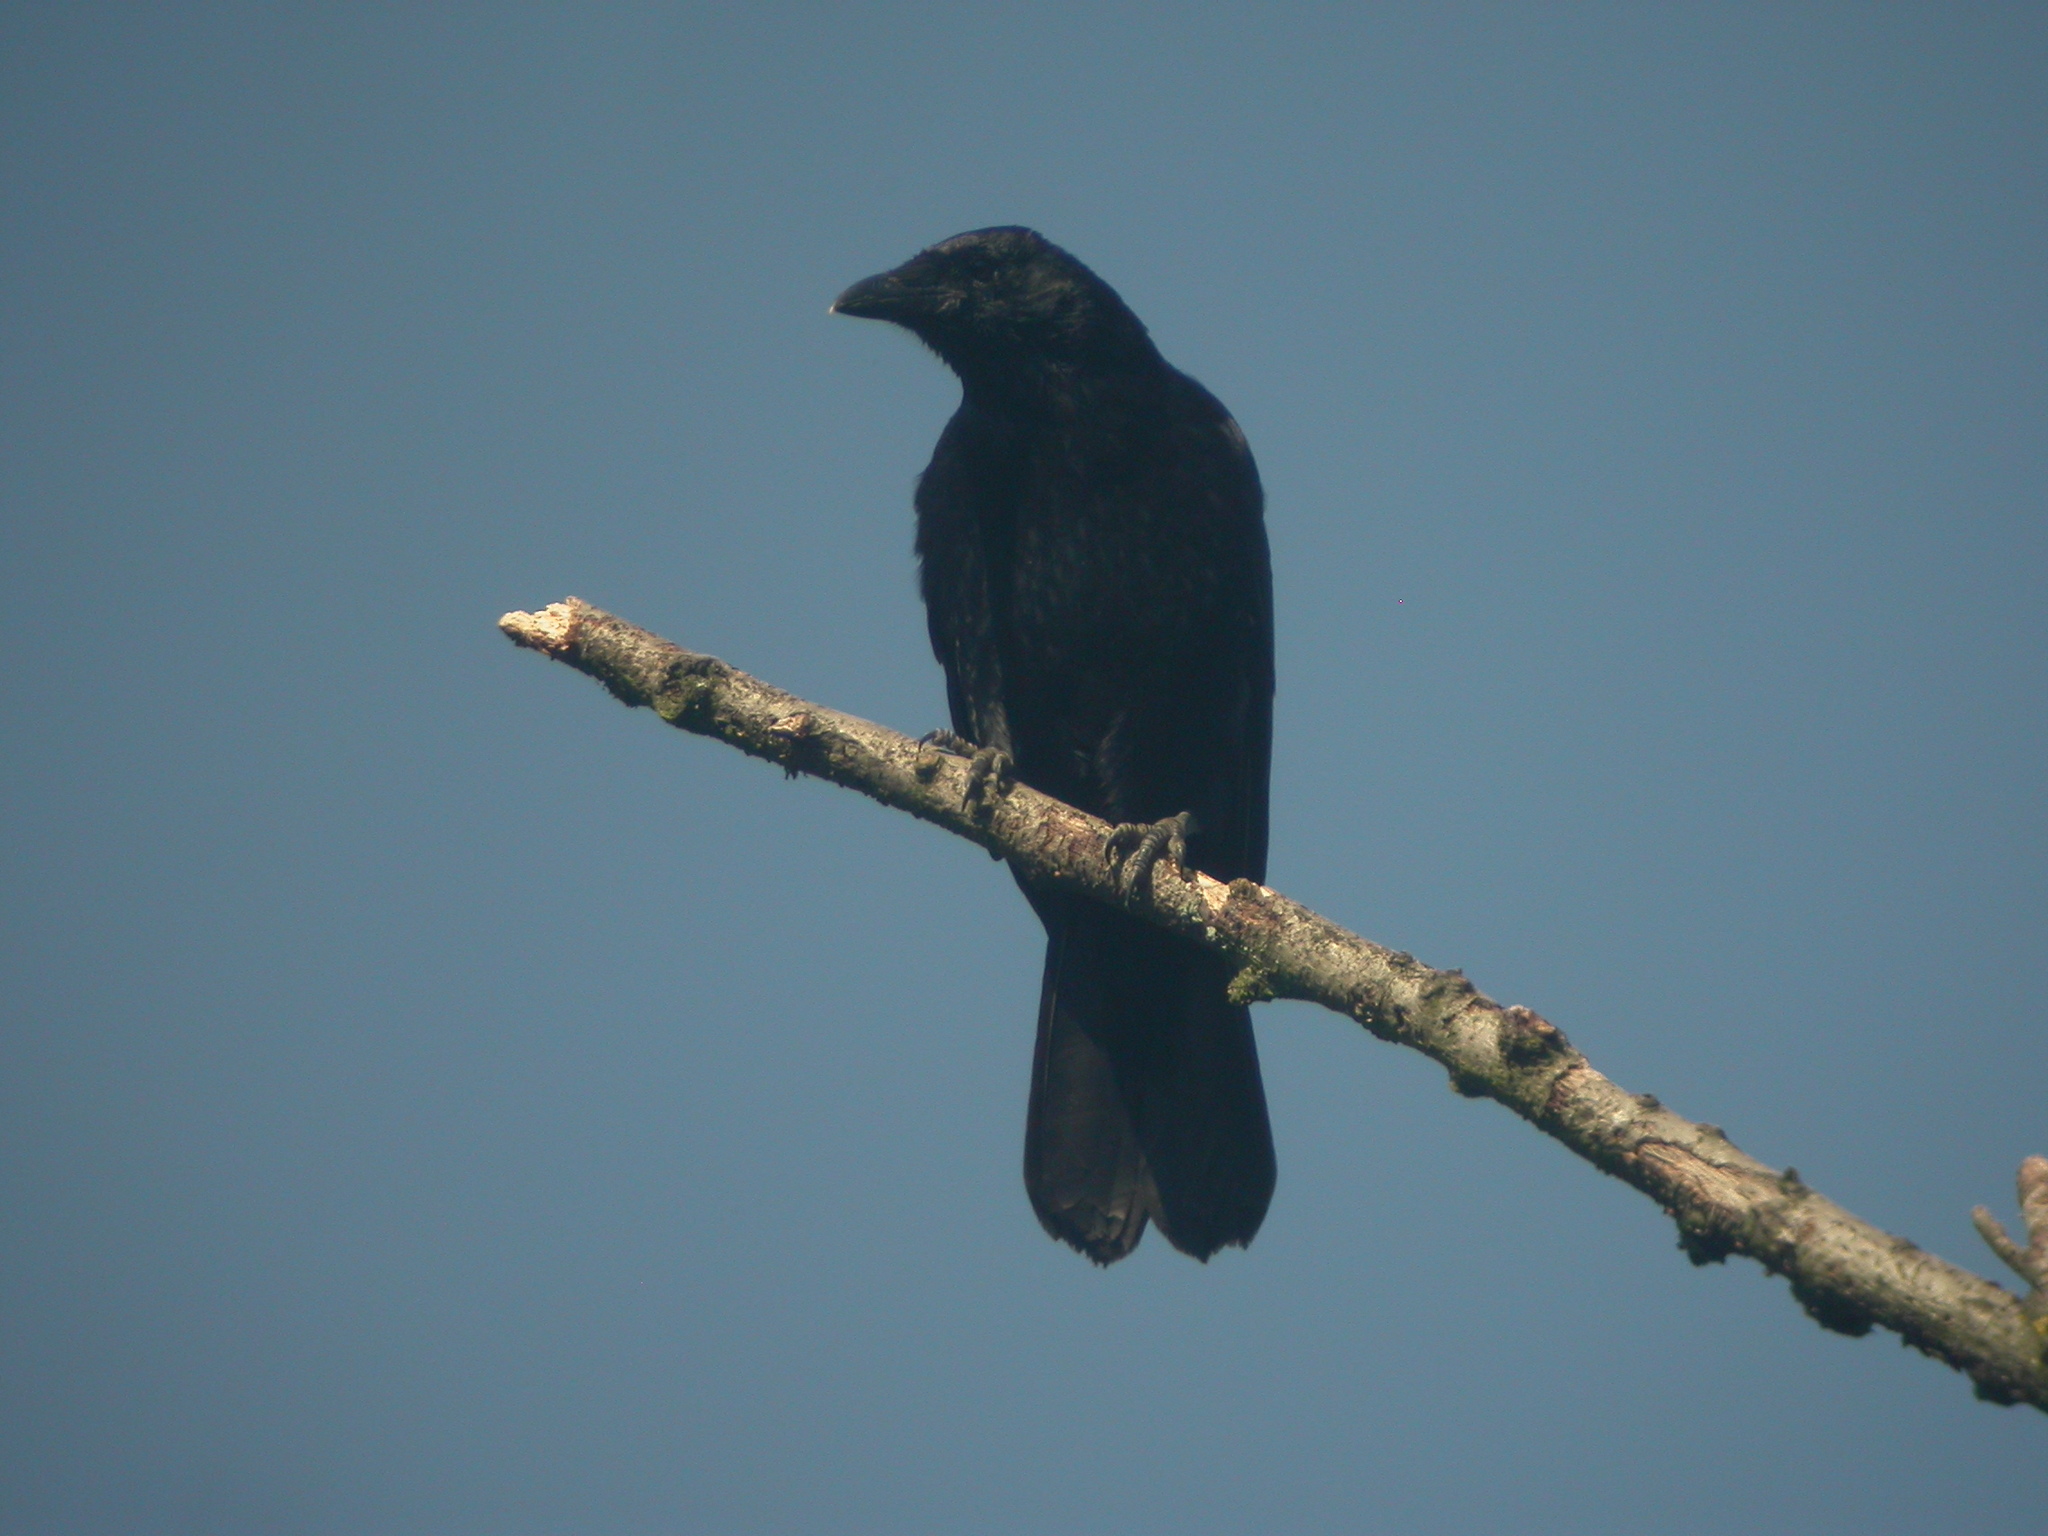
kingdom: Animalia
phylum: Chordata
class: Aves
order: Passeriformes
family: Corvidae
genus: Corvus
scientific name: Corvus corone
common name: Carrion crow
